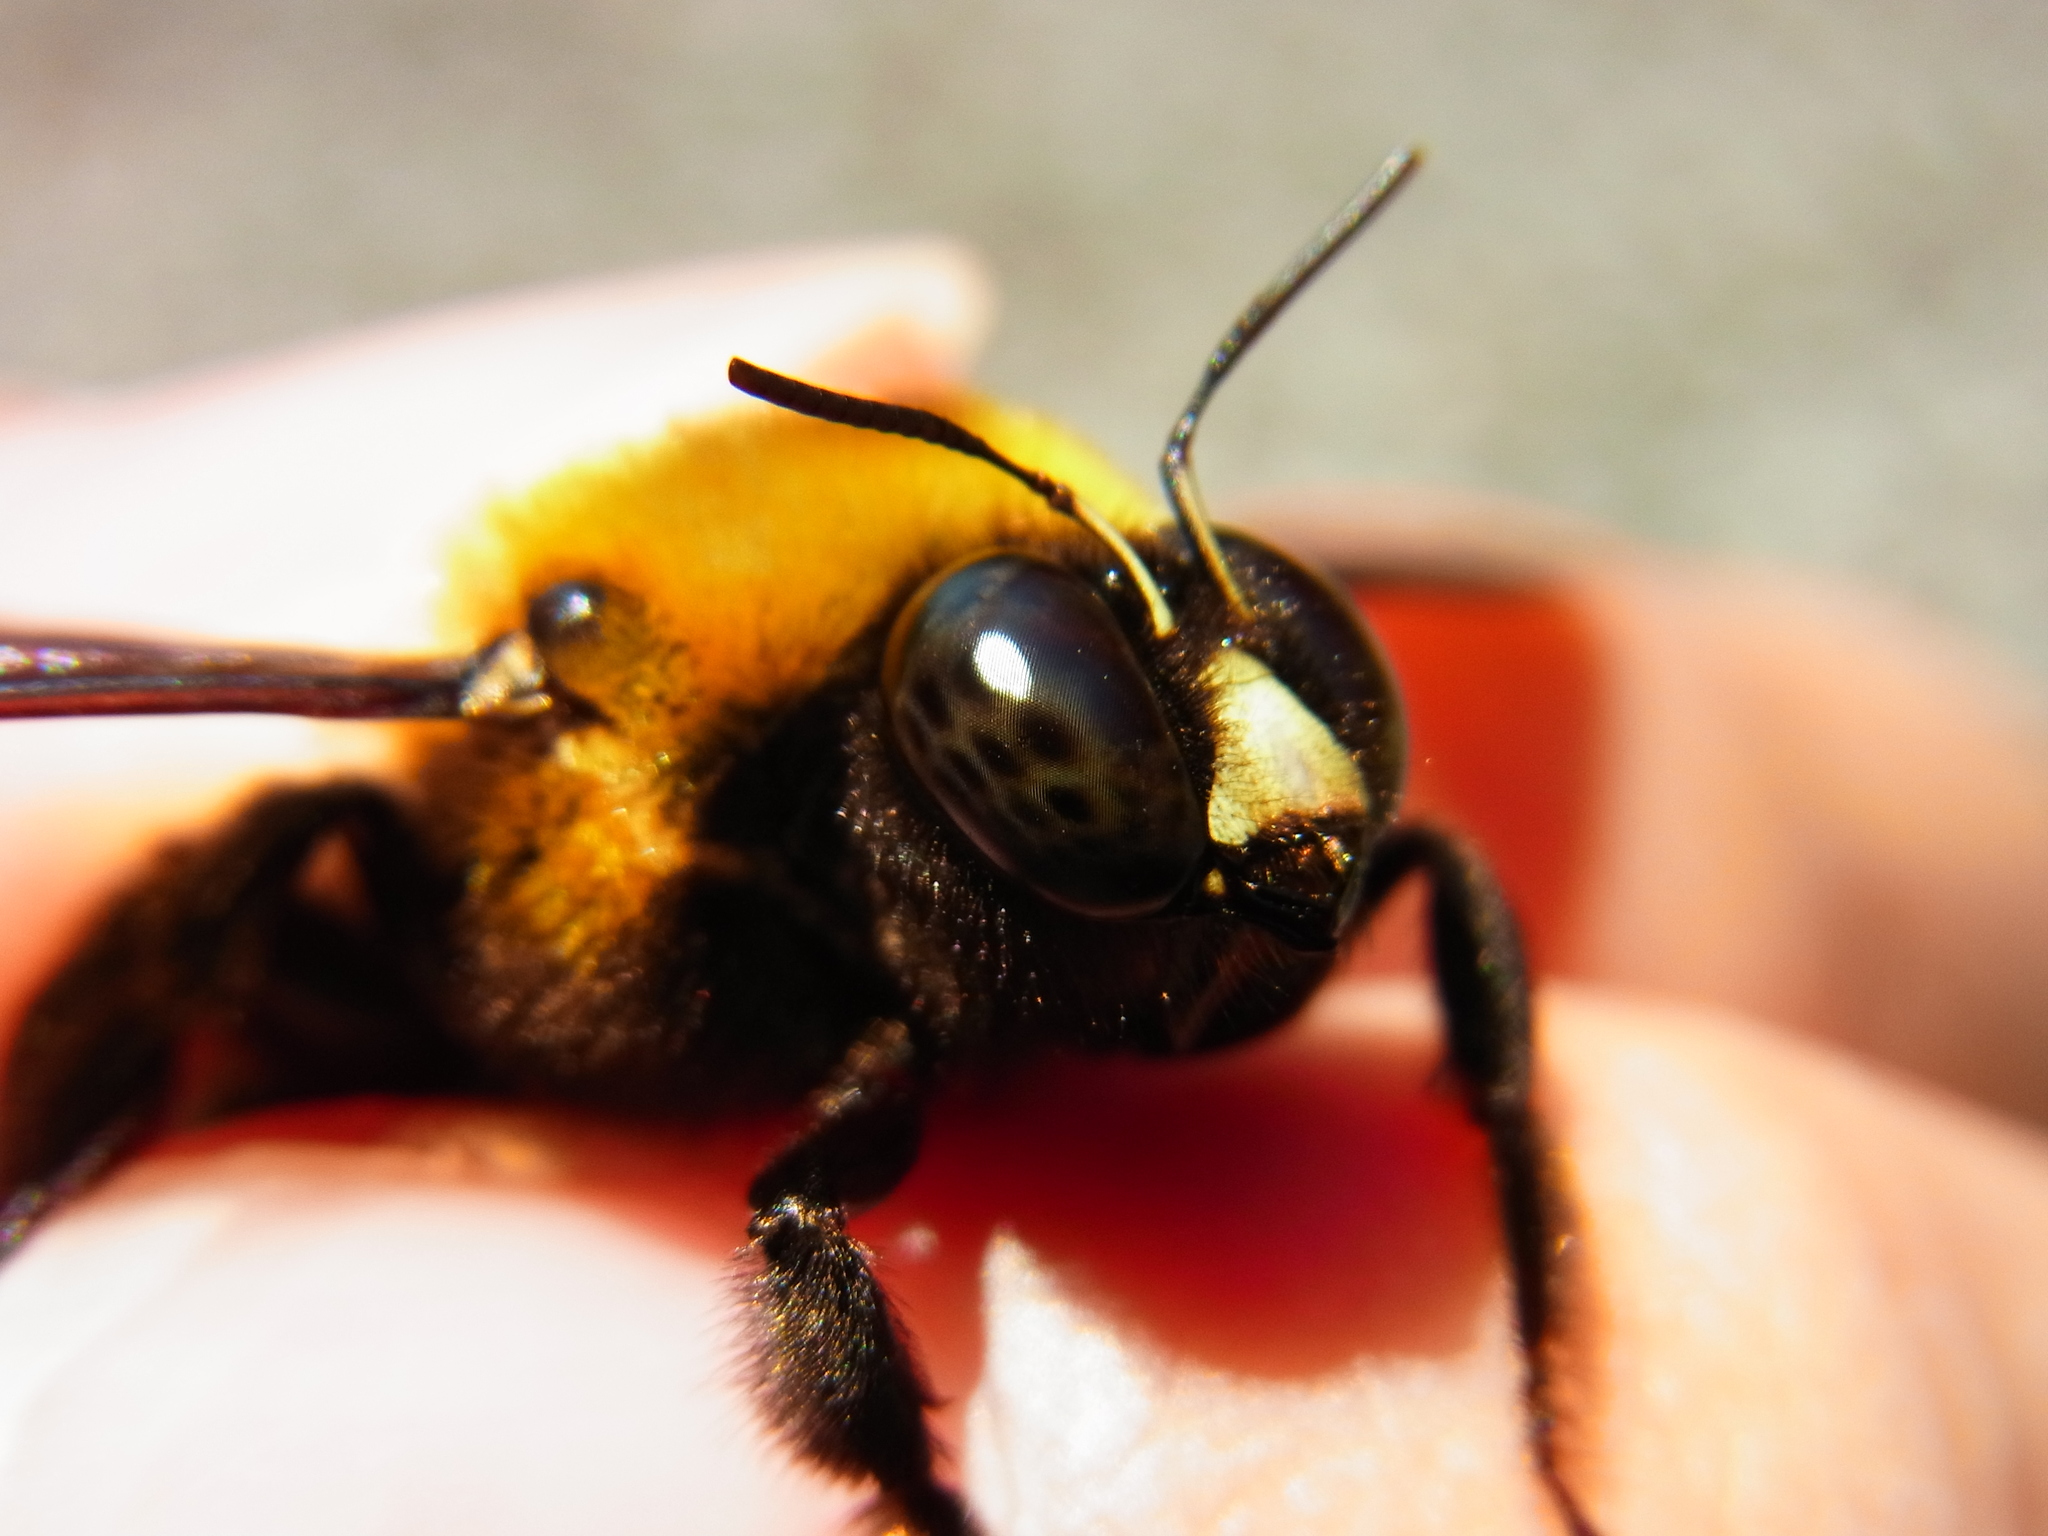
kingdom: Animalia
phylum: Arthropoda
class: Insecta
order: Hymenoptera
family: Apidae
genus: Xylocopa
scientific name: Xylocopa appendiculata
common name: Japanese carpenter bee
